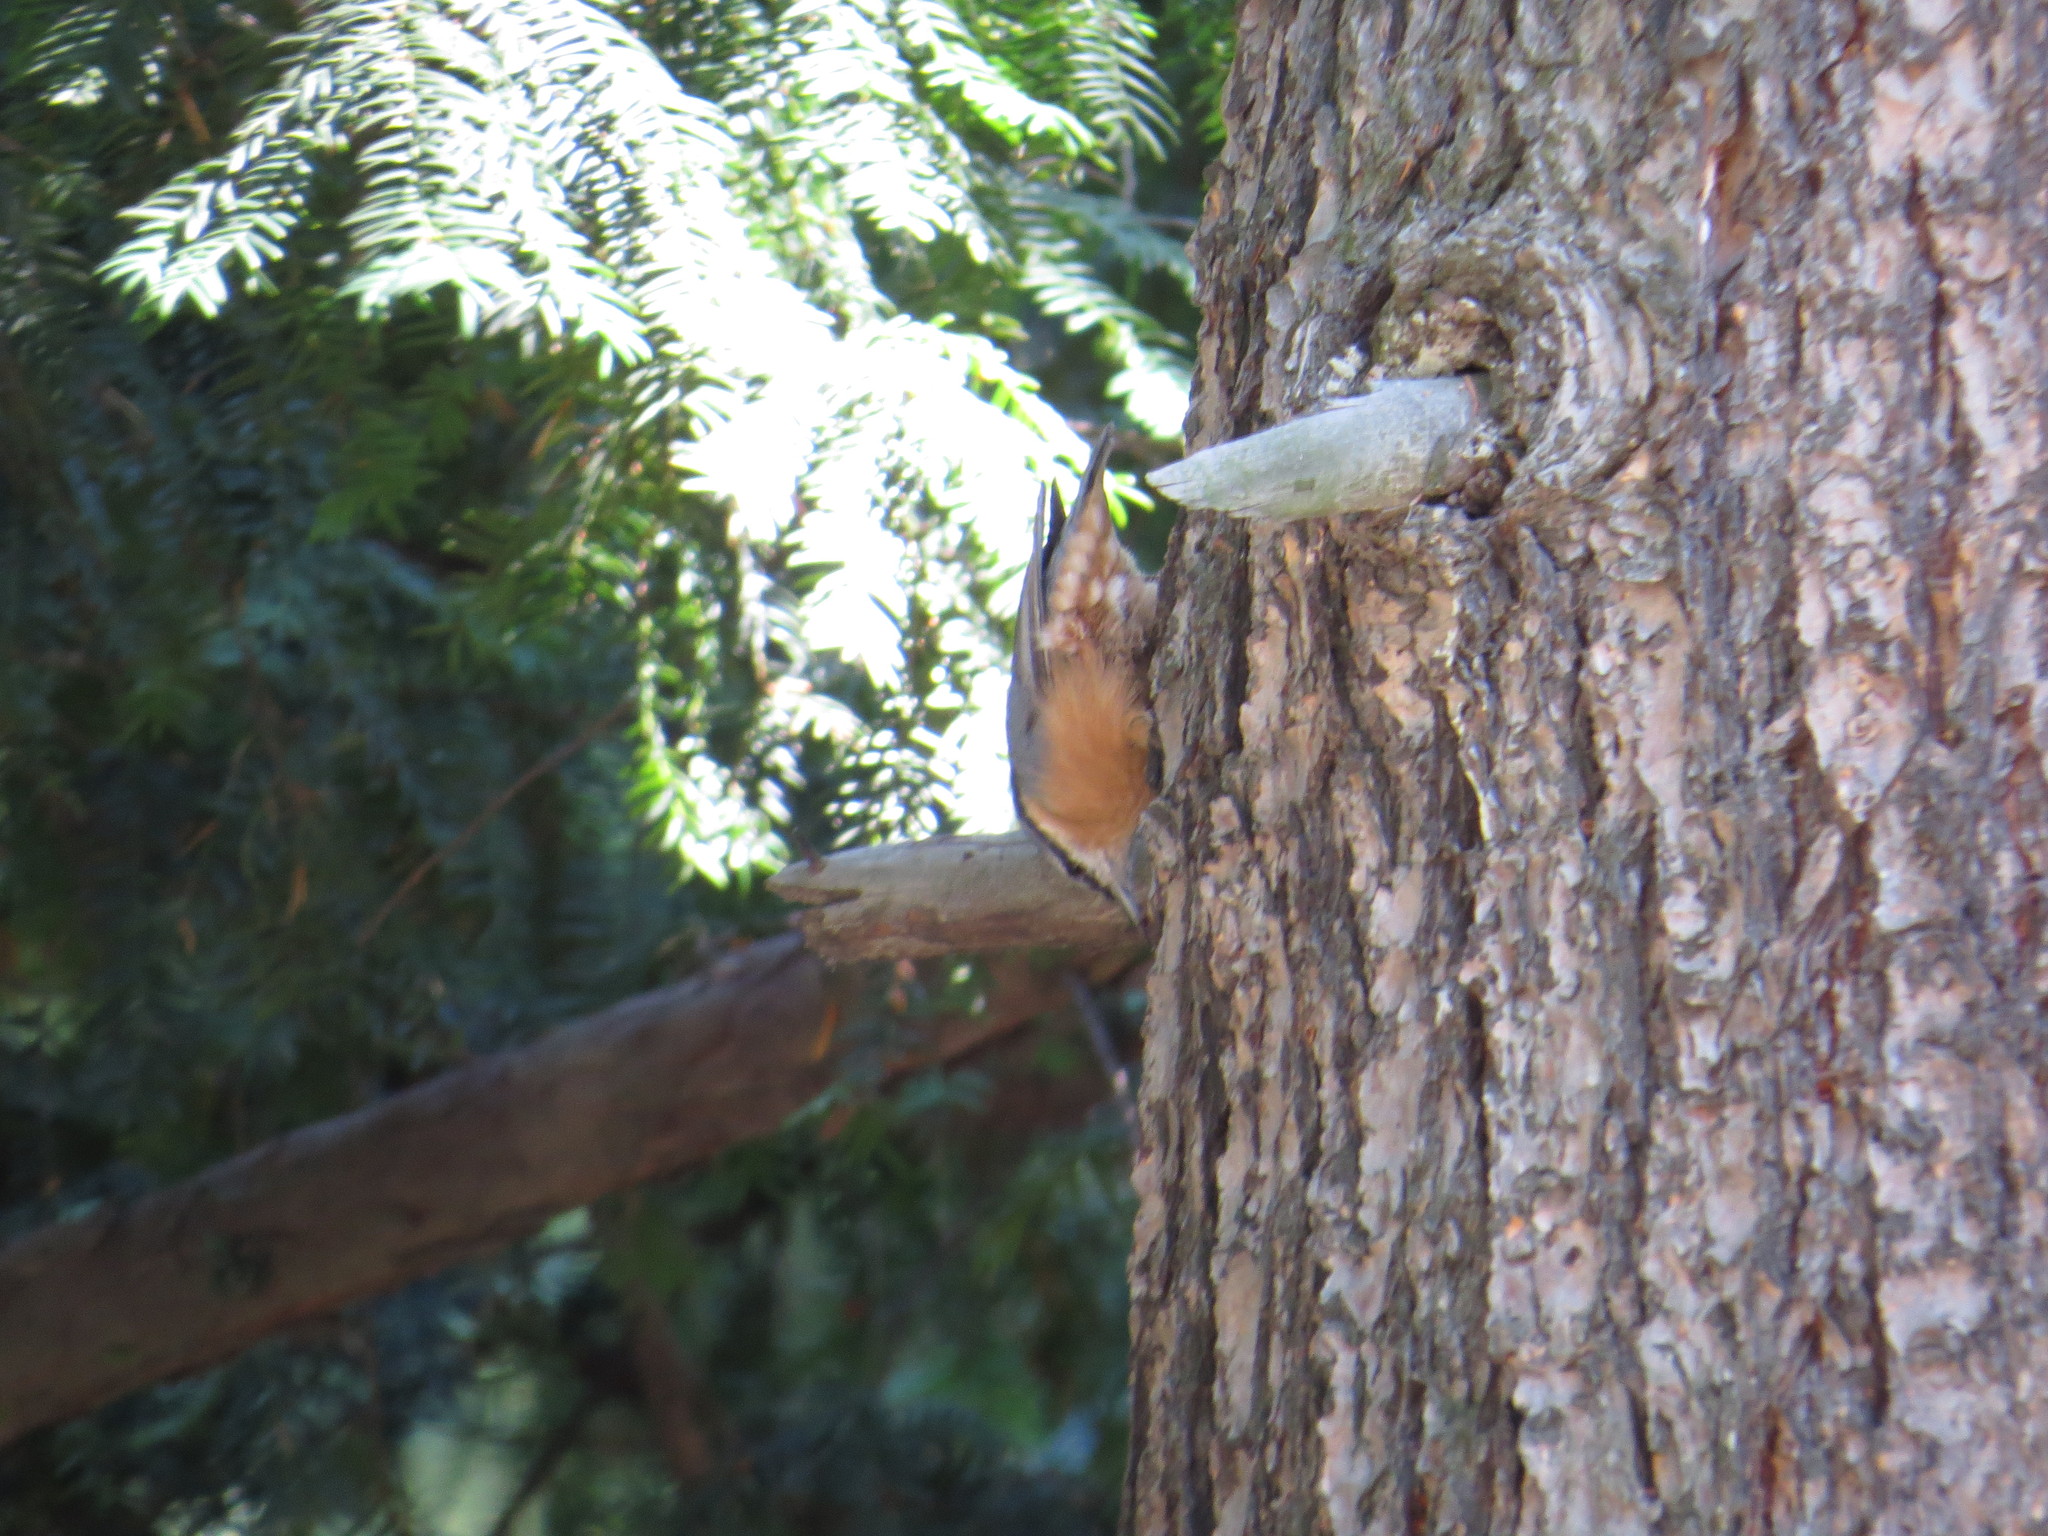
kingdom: Animalia
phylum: Chordata
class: Aves
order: Passeriformes
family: Sittidae
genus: Sitta
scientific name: Sitta europaea
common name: Eurasian nuthatch
